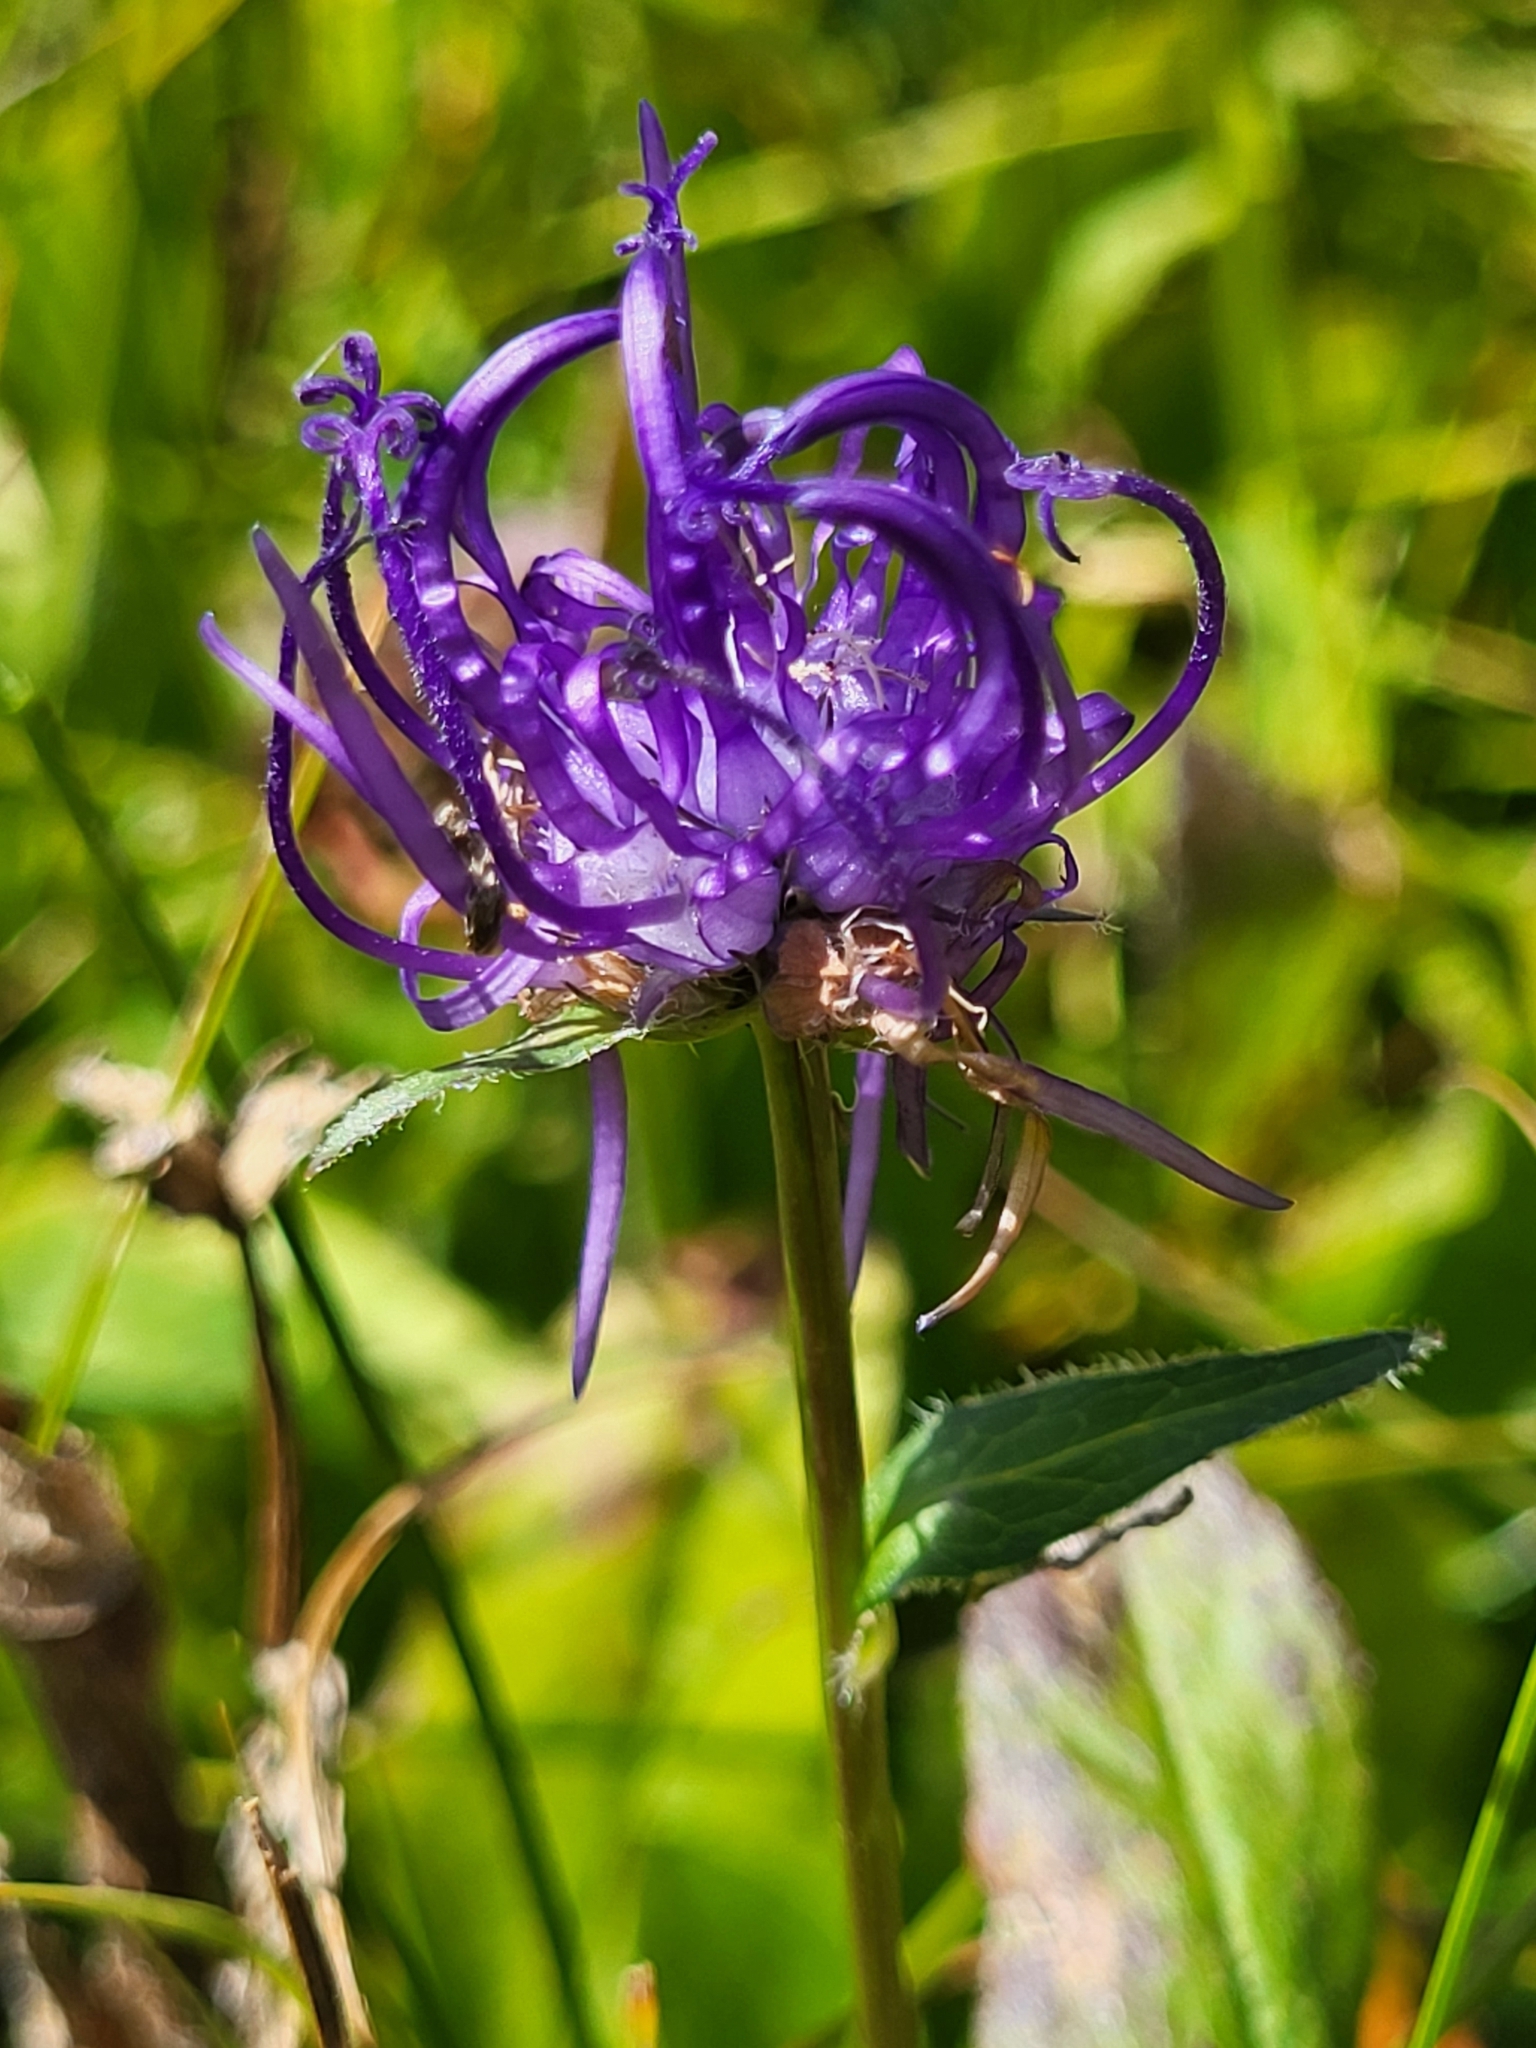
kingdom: Plantae
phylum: Tracheophyta
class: Magnoliopsida
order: Asterales
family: Campanulaceae
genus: Phyteuma
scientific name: Phyteuma orbiculare
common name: Round-headed rampion
